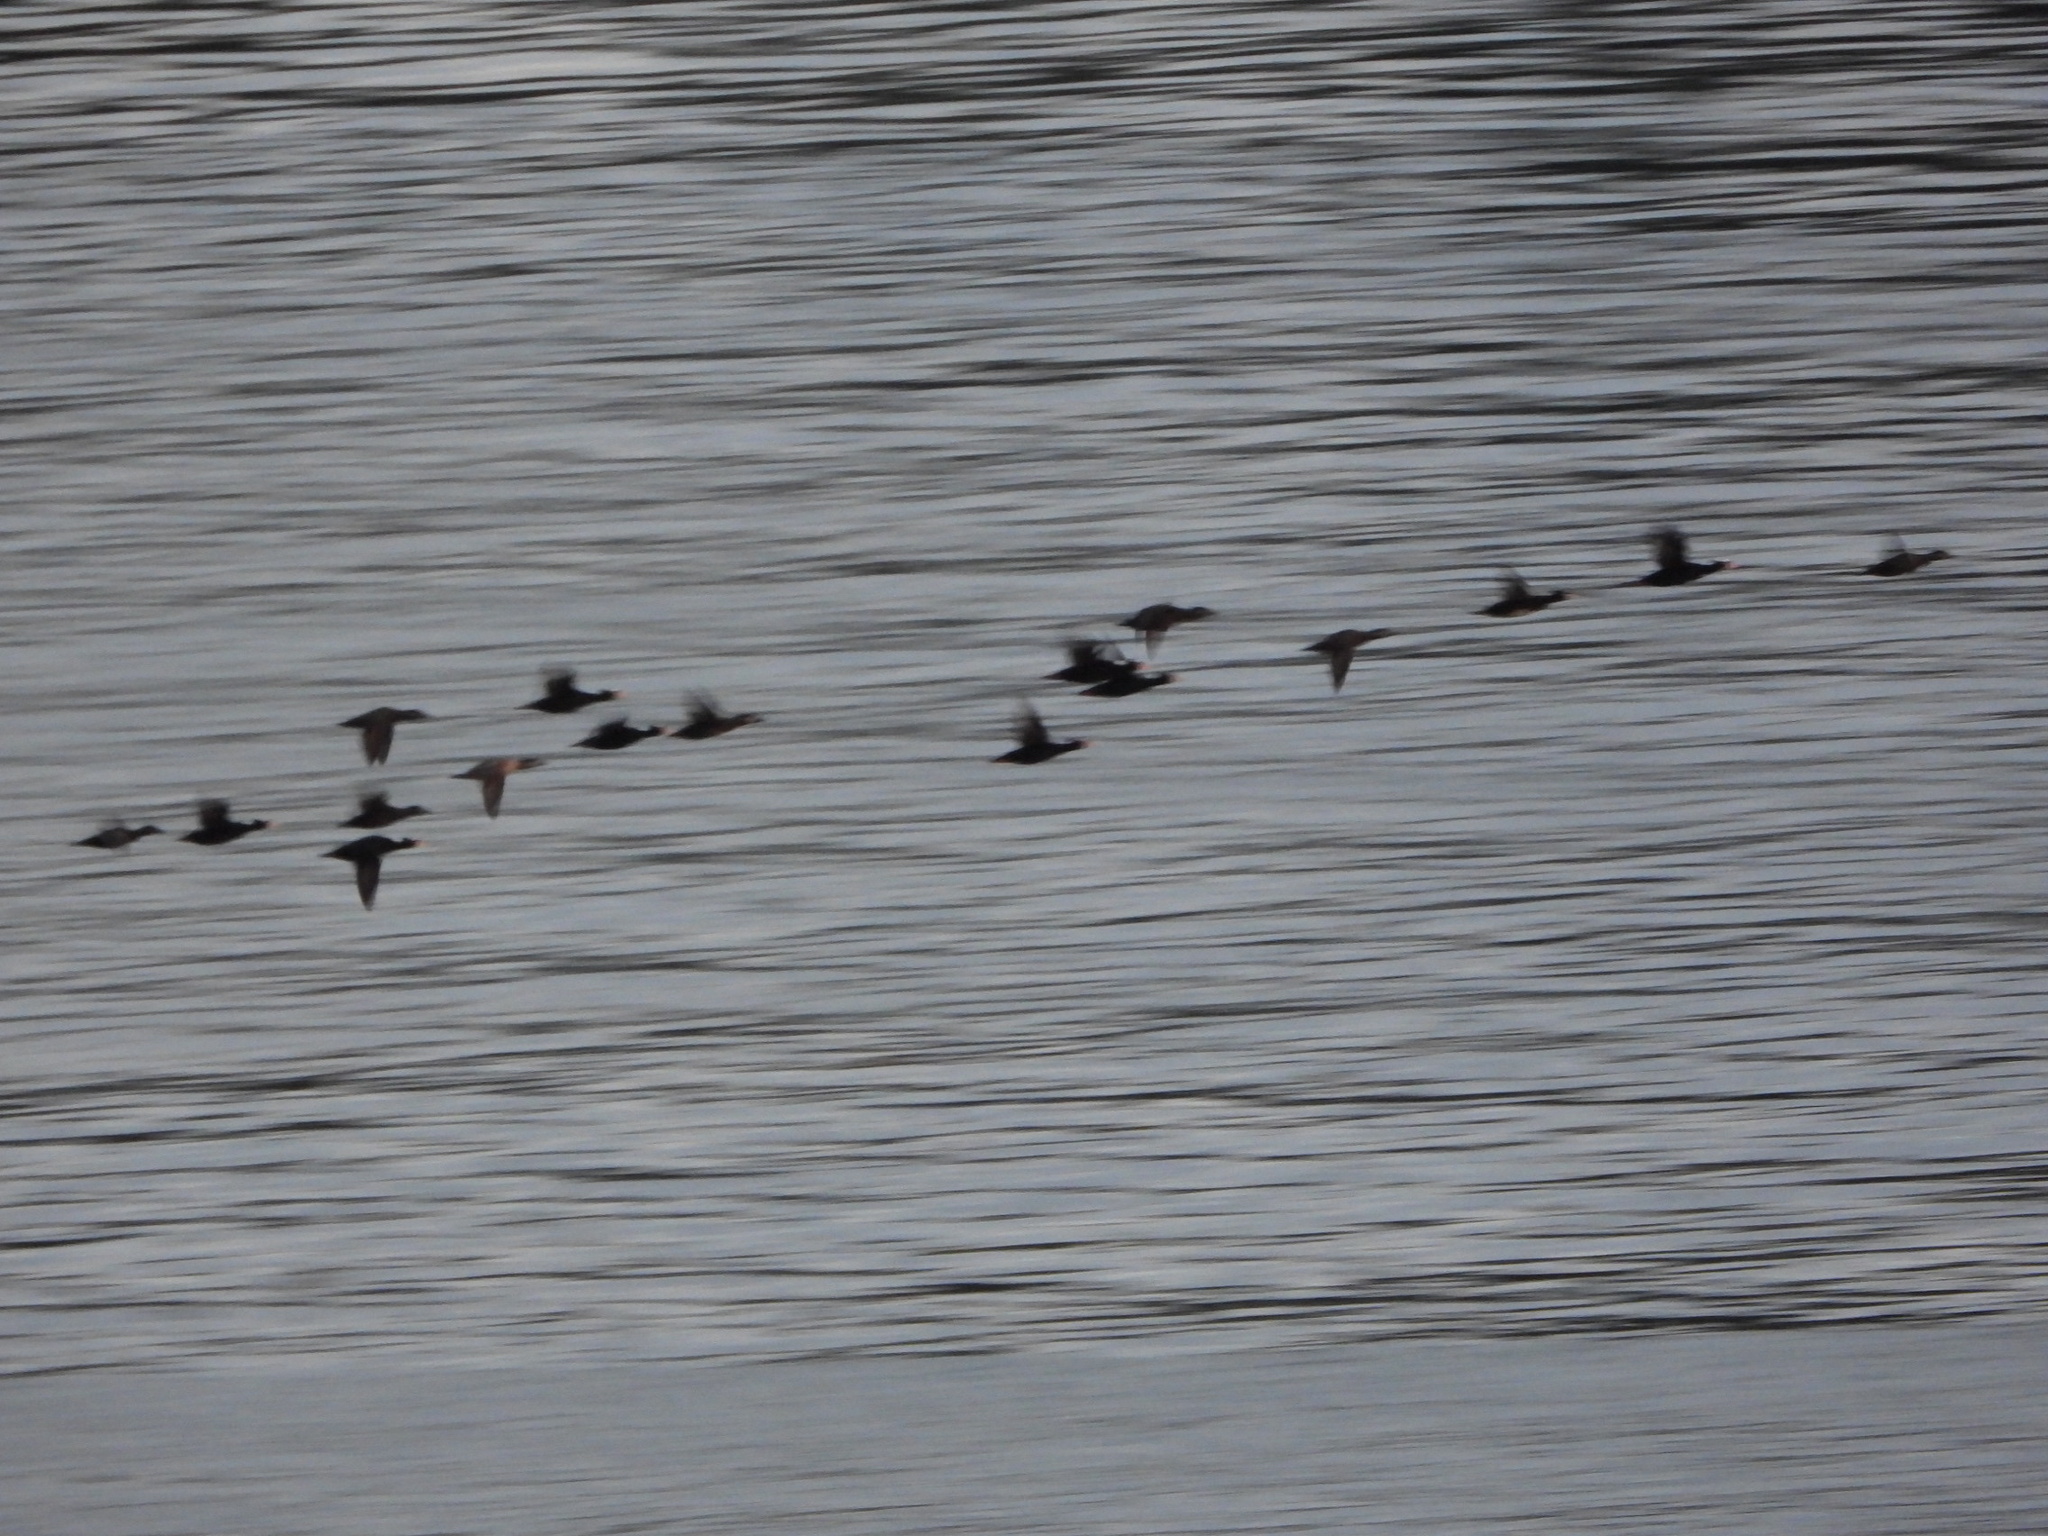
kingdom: Animalia
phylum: Chordata
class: Aves
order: Anseriformes
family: Anatidae
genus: Melanitta
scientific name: Melanitta perspicillata
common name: Surf scoter
